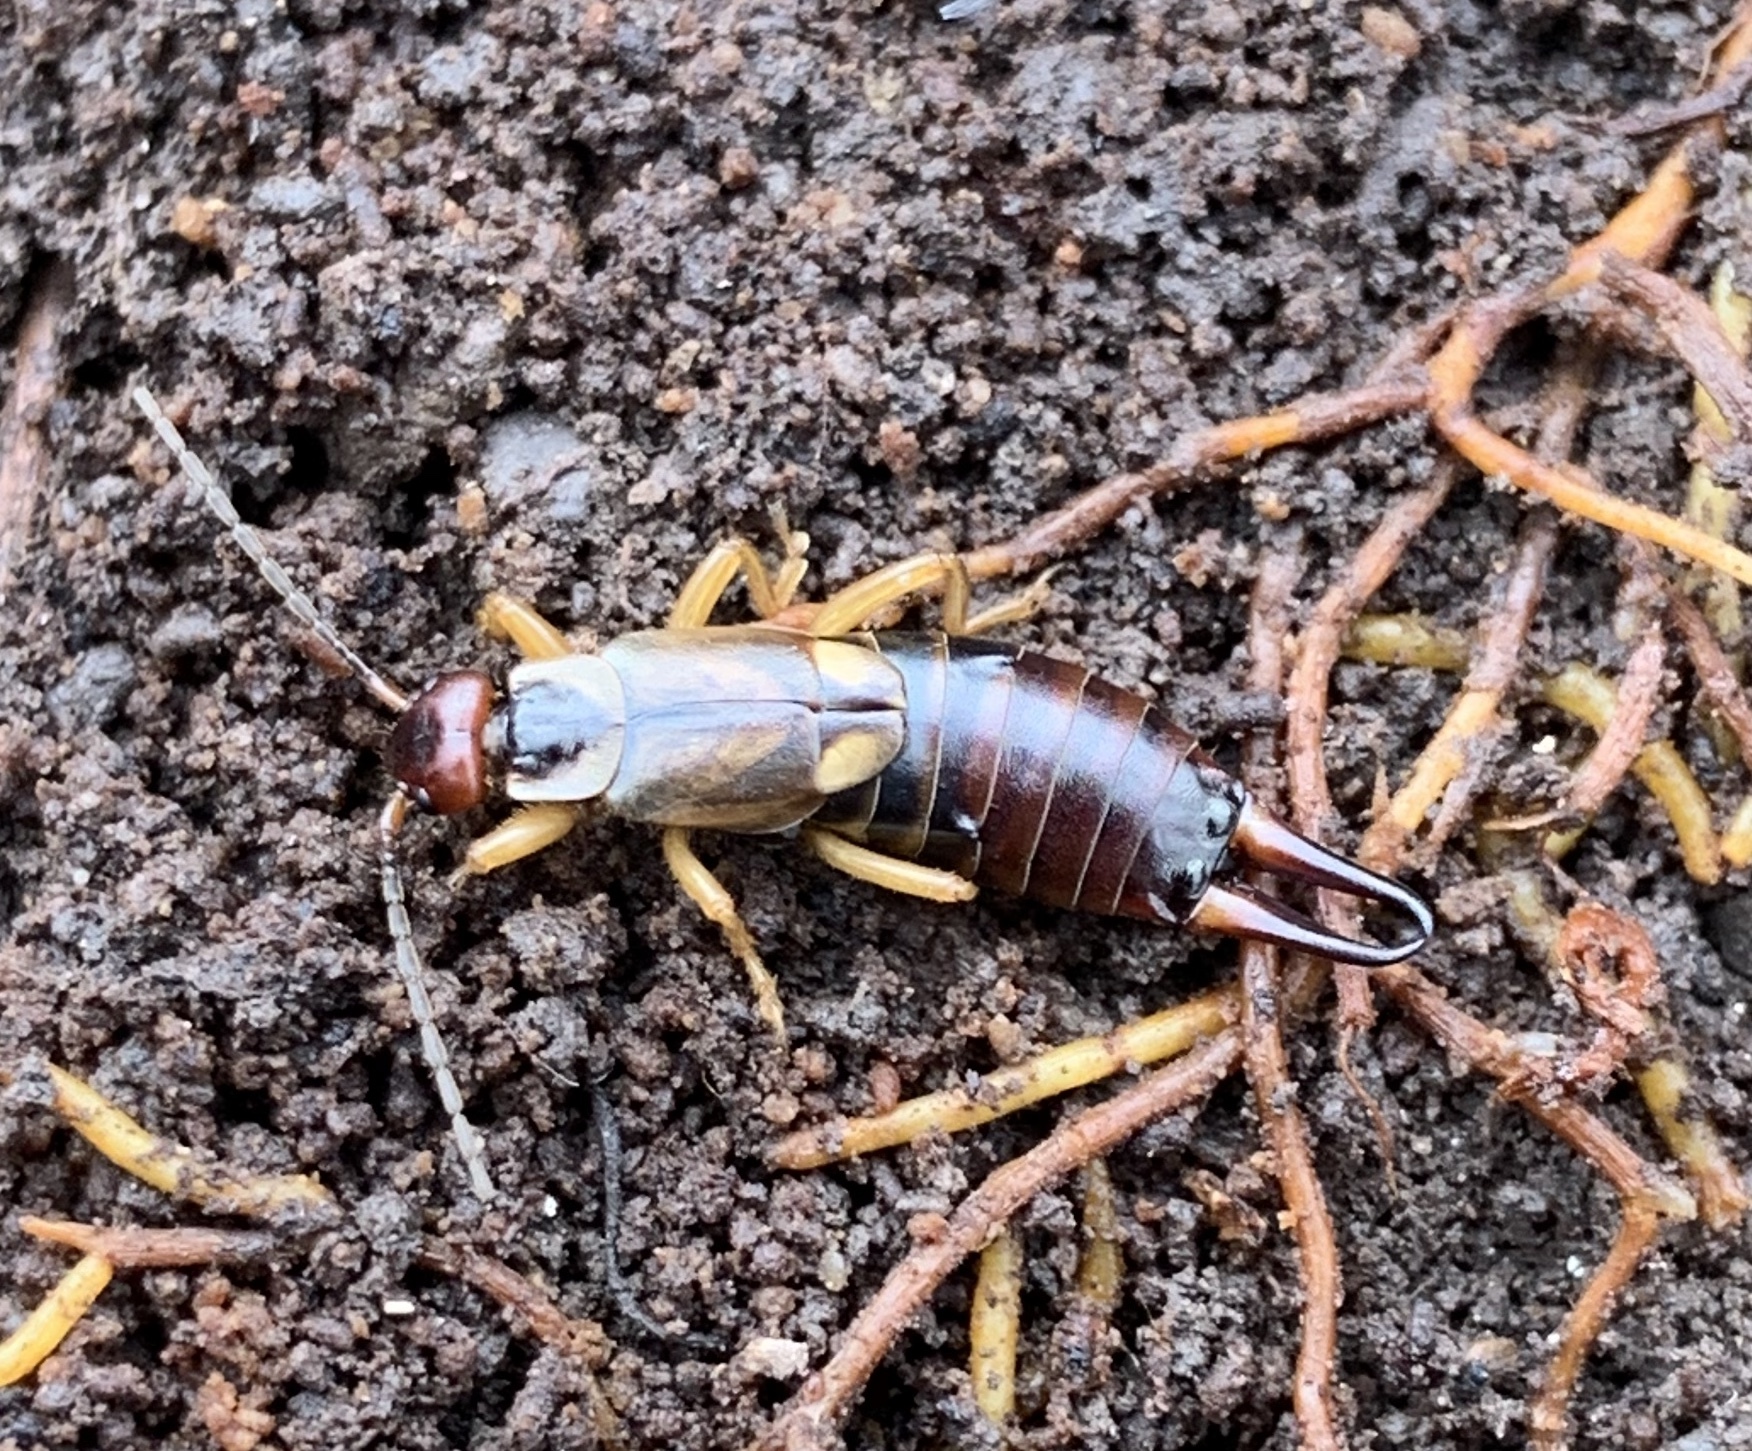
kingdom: Animalia
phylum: Arthropoda
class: Insecta
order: Dermaptera
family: Forficulidae
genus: Forficula
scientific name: Forficula
